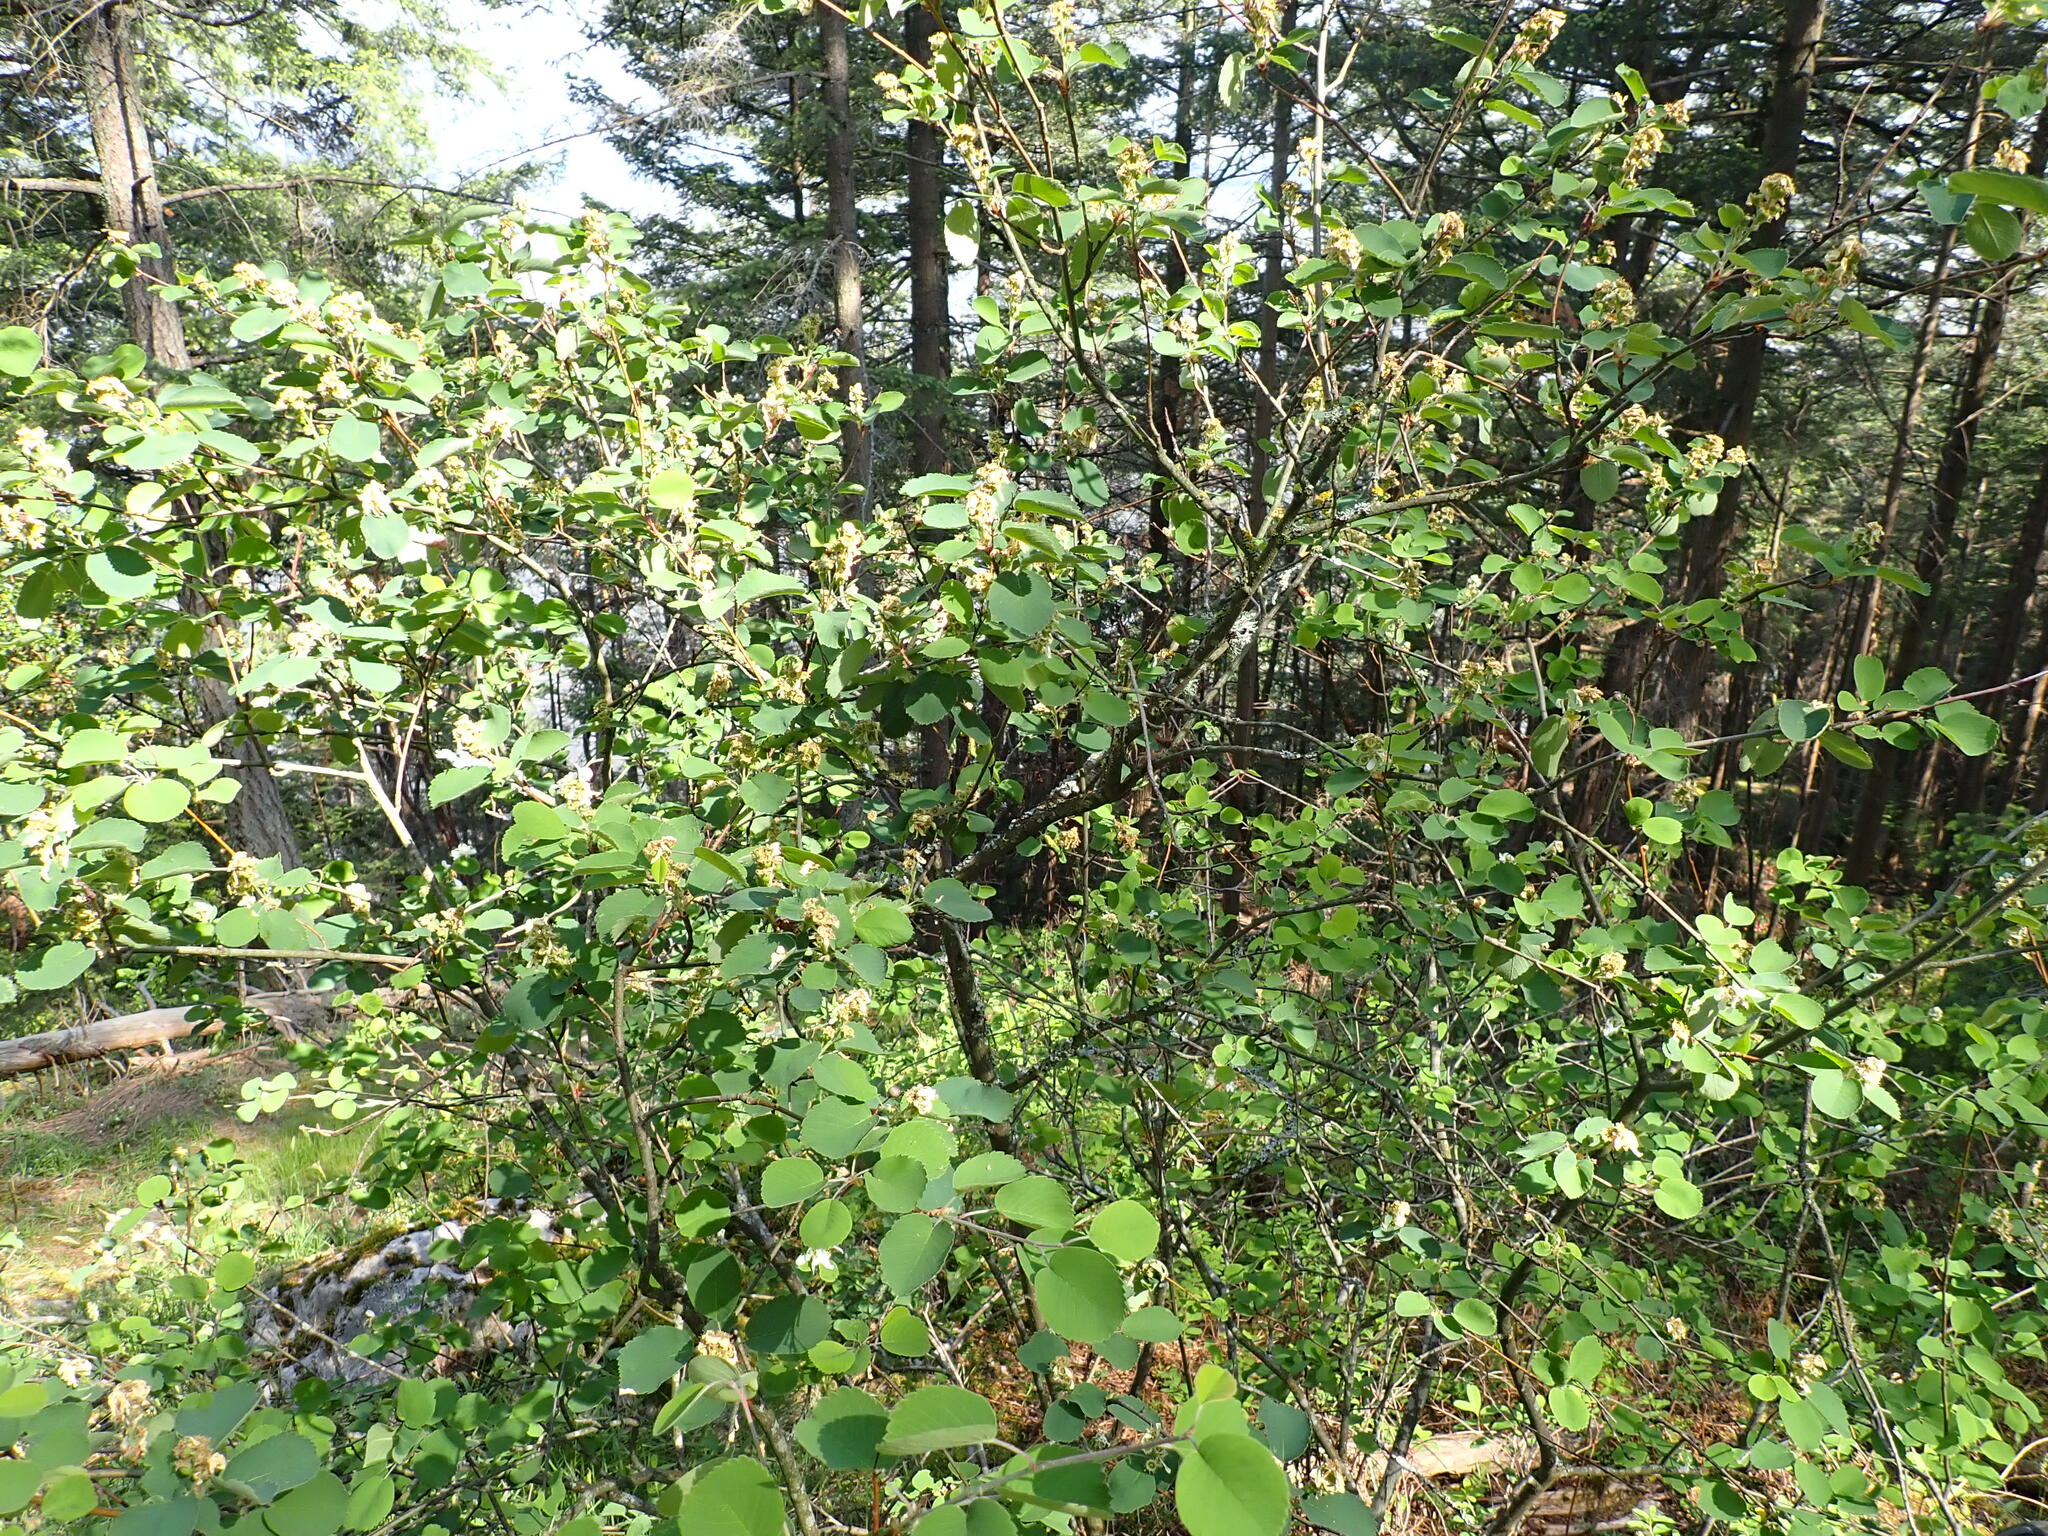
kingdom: Plantae
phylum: Tracheophyta
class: Magnoliopsida
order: Rosales
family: Rosaceae
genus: Amelanchier
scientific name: Amelanchier alnifolia
